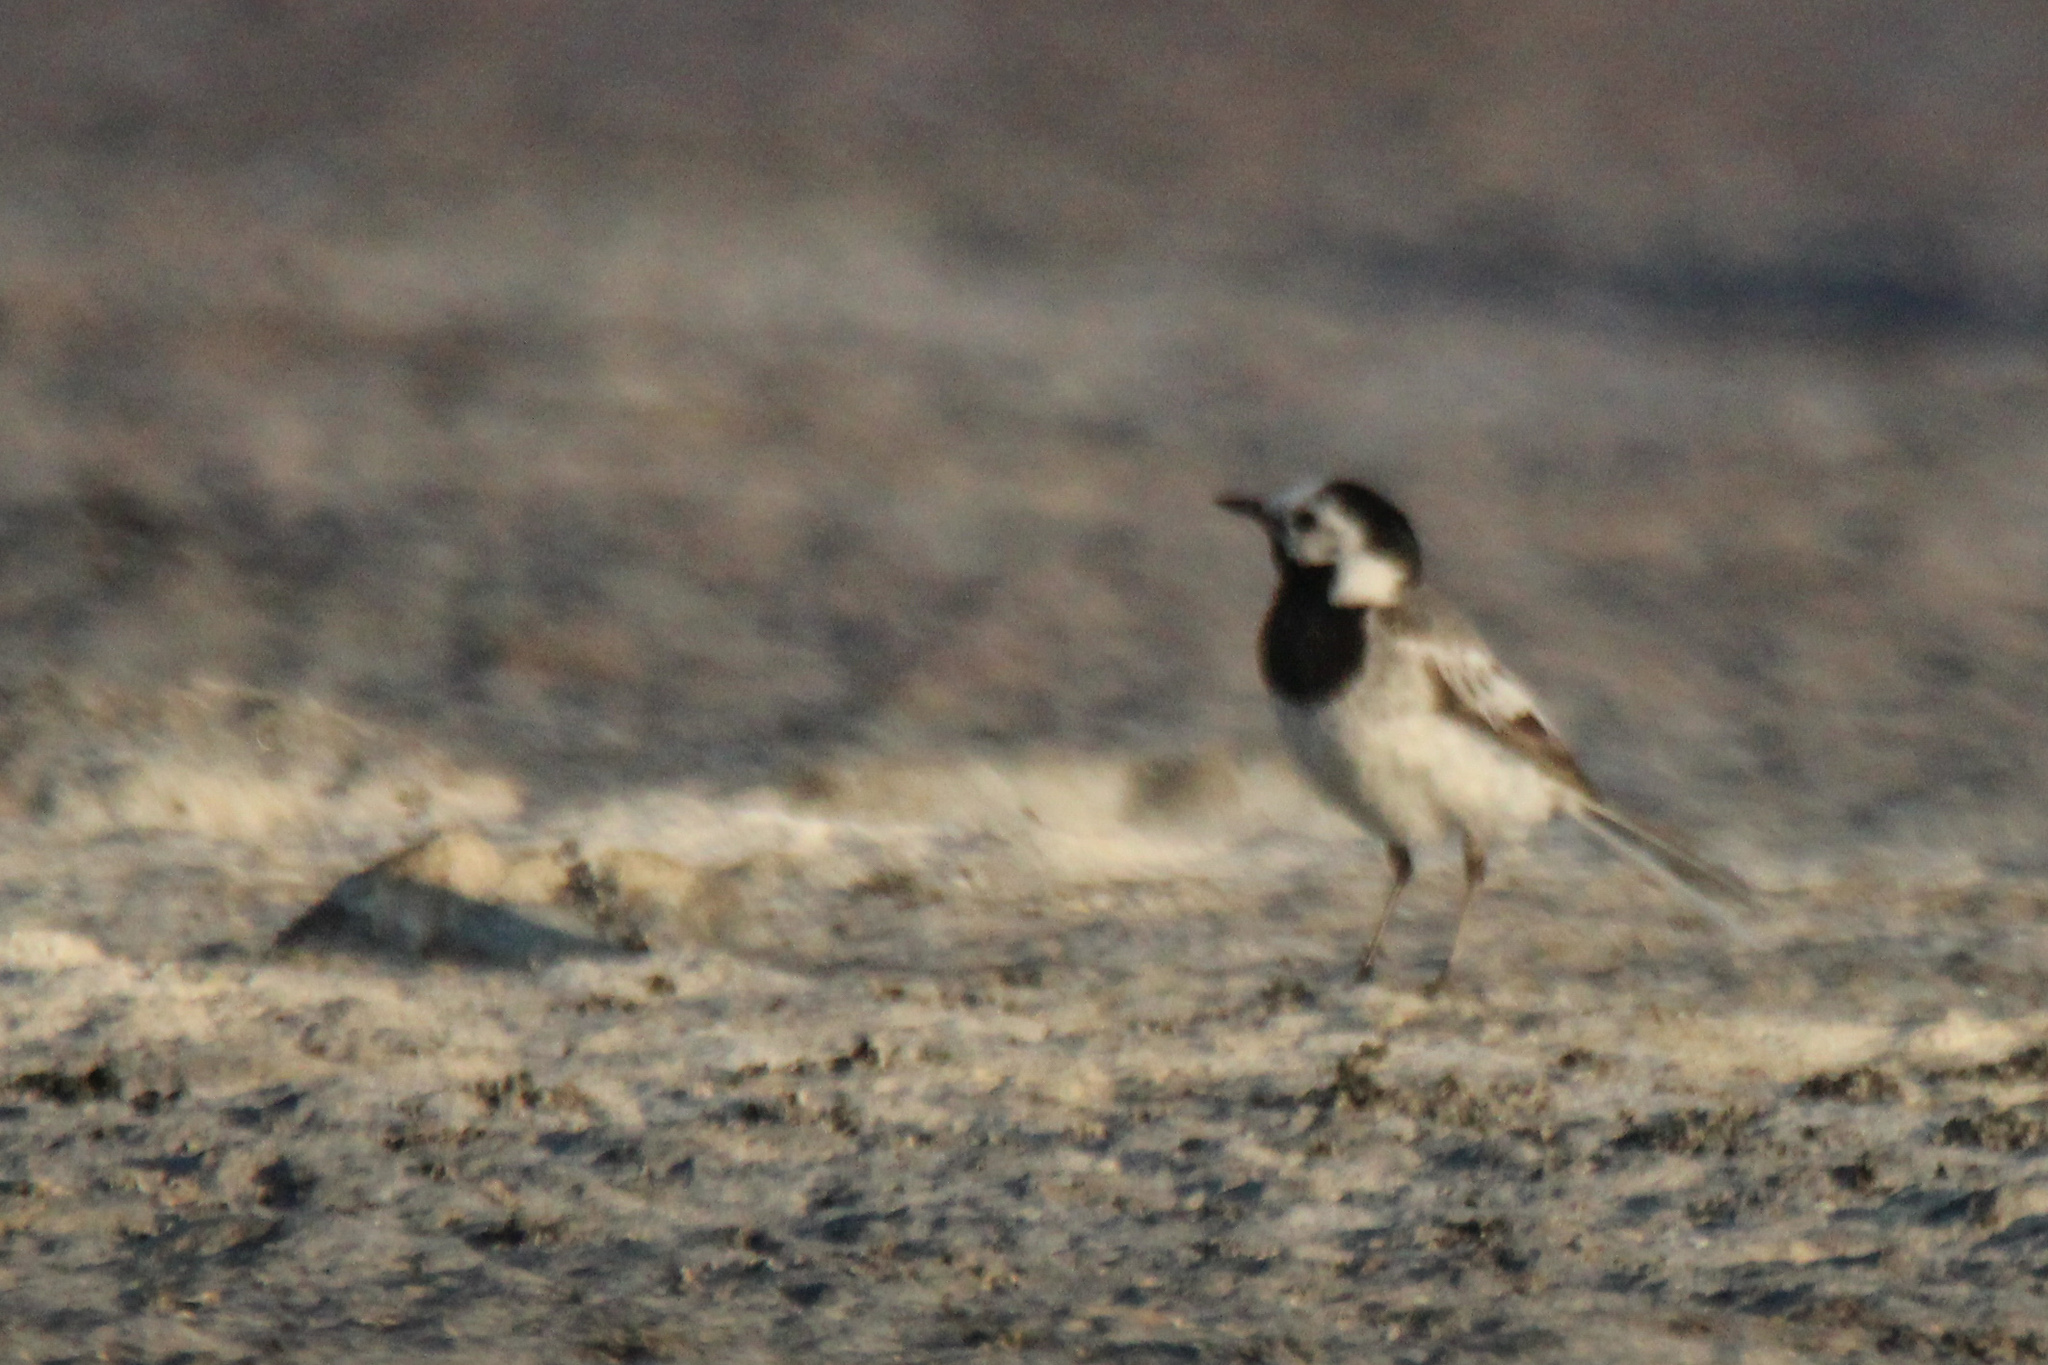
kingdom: Animalia
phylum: Chordata
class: Aves
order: Passeriformes
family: Motacillidae
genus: Motacilla
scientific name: Motacilla alba
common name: White wagtail
